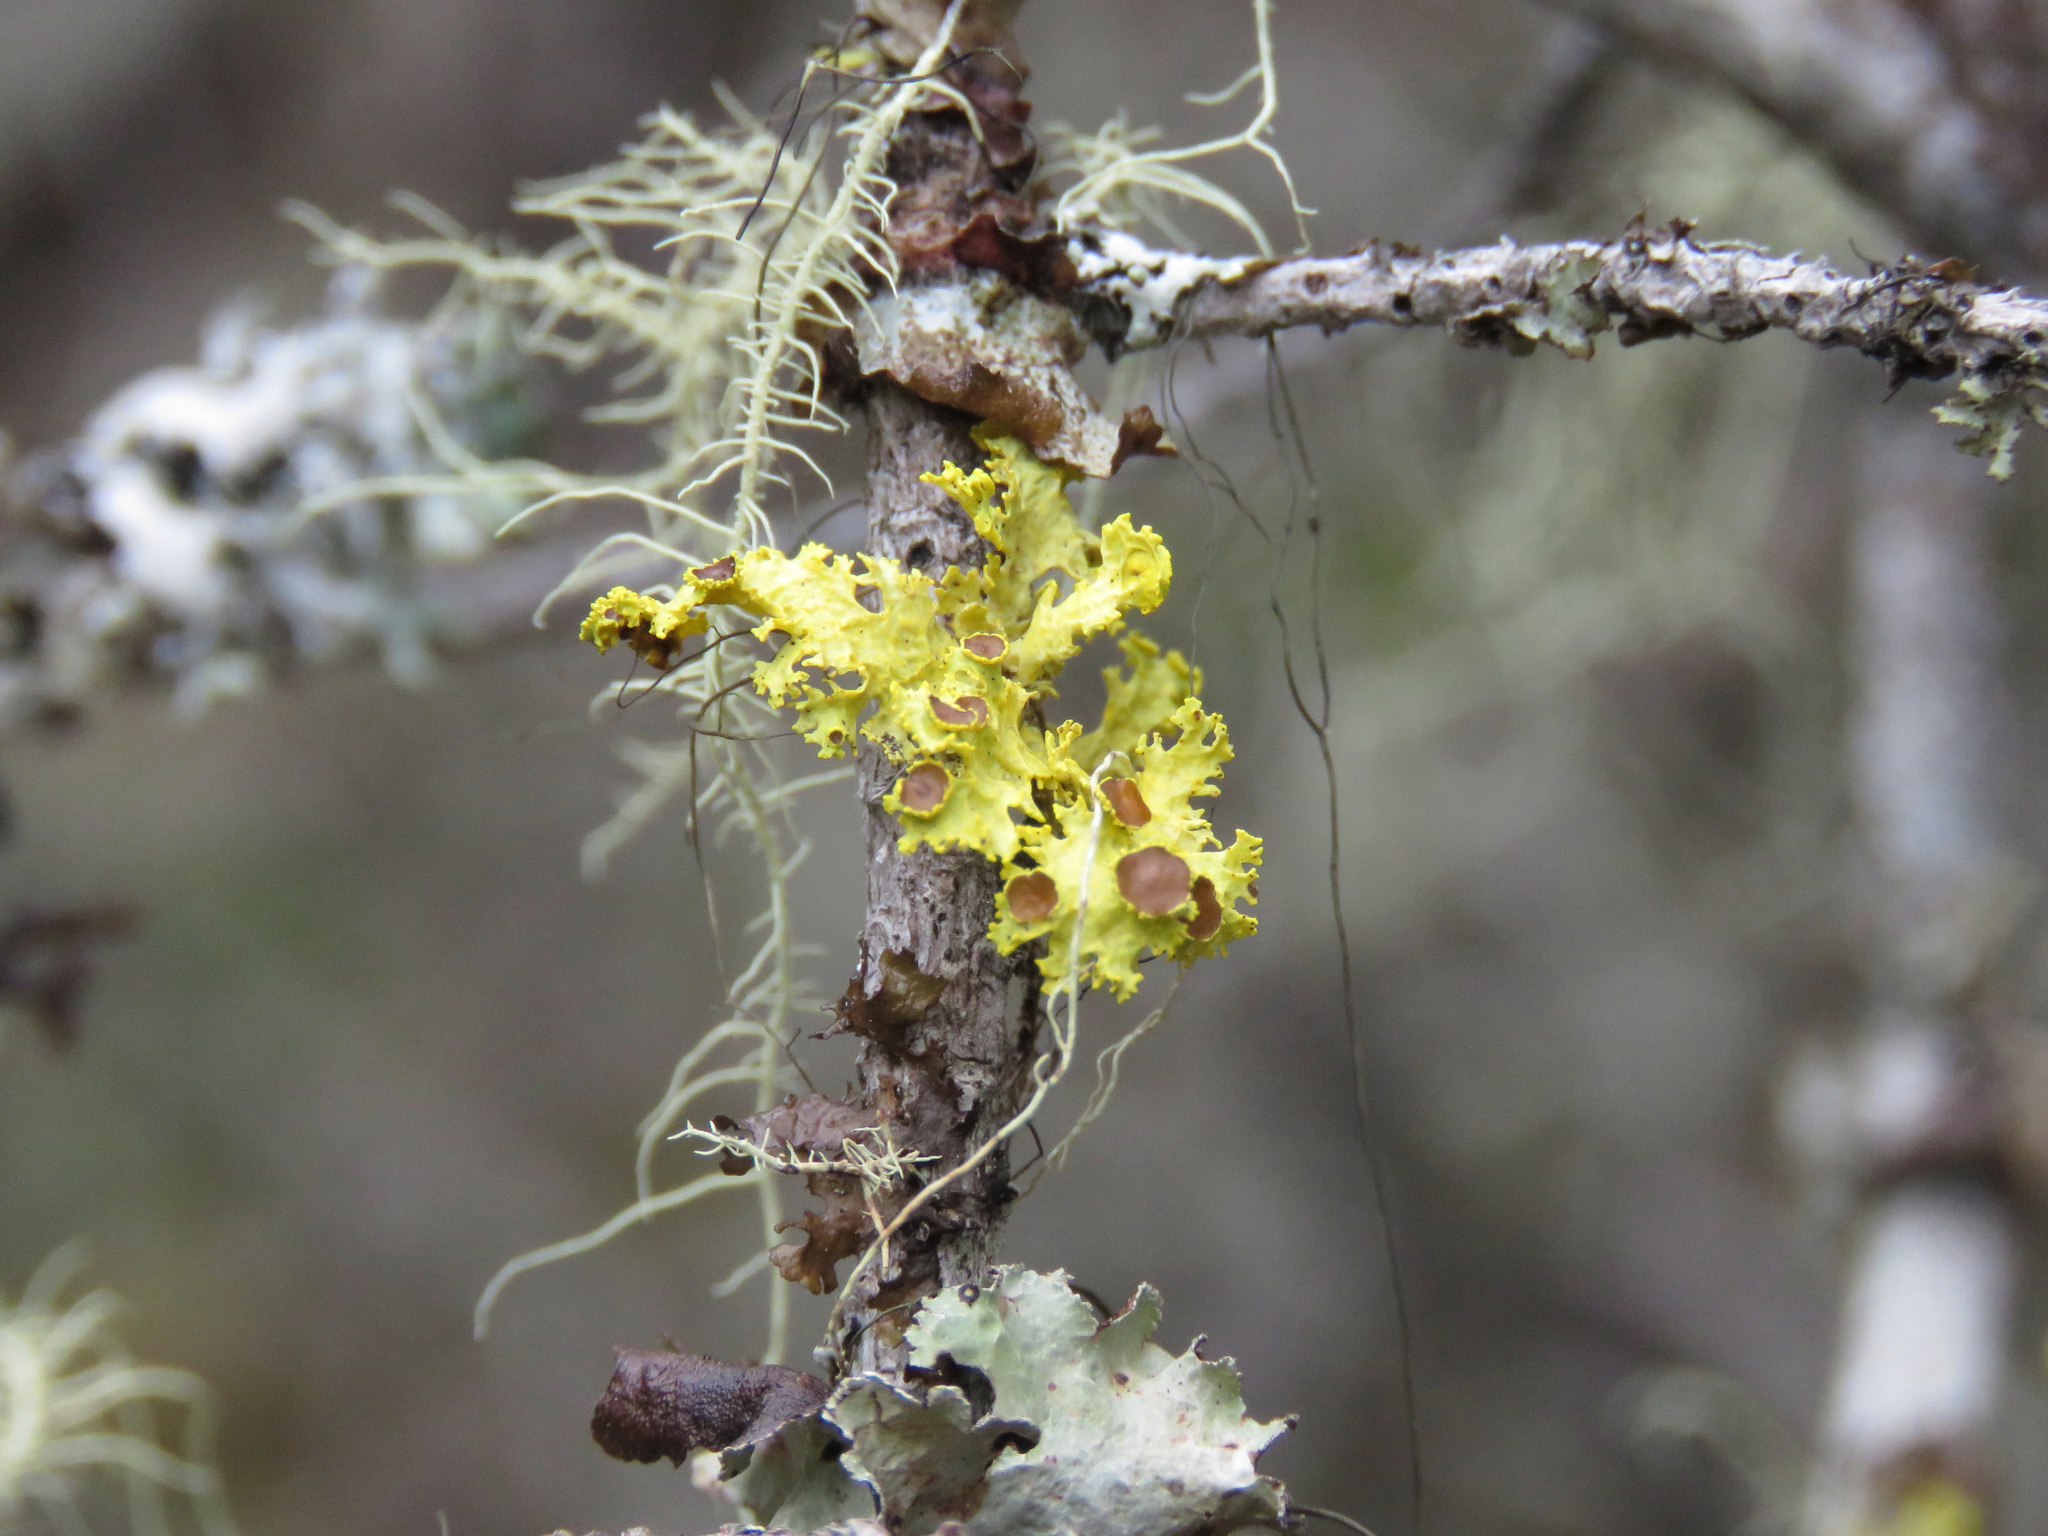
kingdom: Fungi
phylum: Ascomycota
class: Lecanoromycetes
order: Lecanorales
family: Parmeliaceae
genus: Vulpicida
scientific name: Vulpicida canadensis
